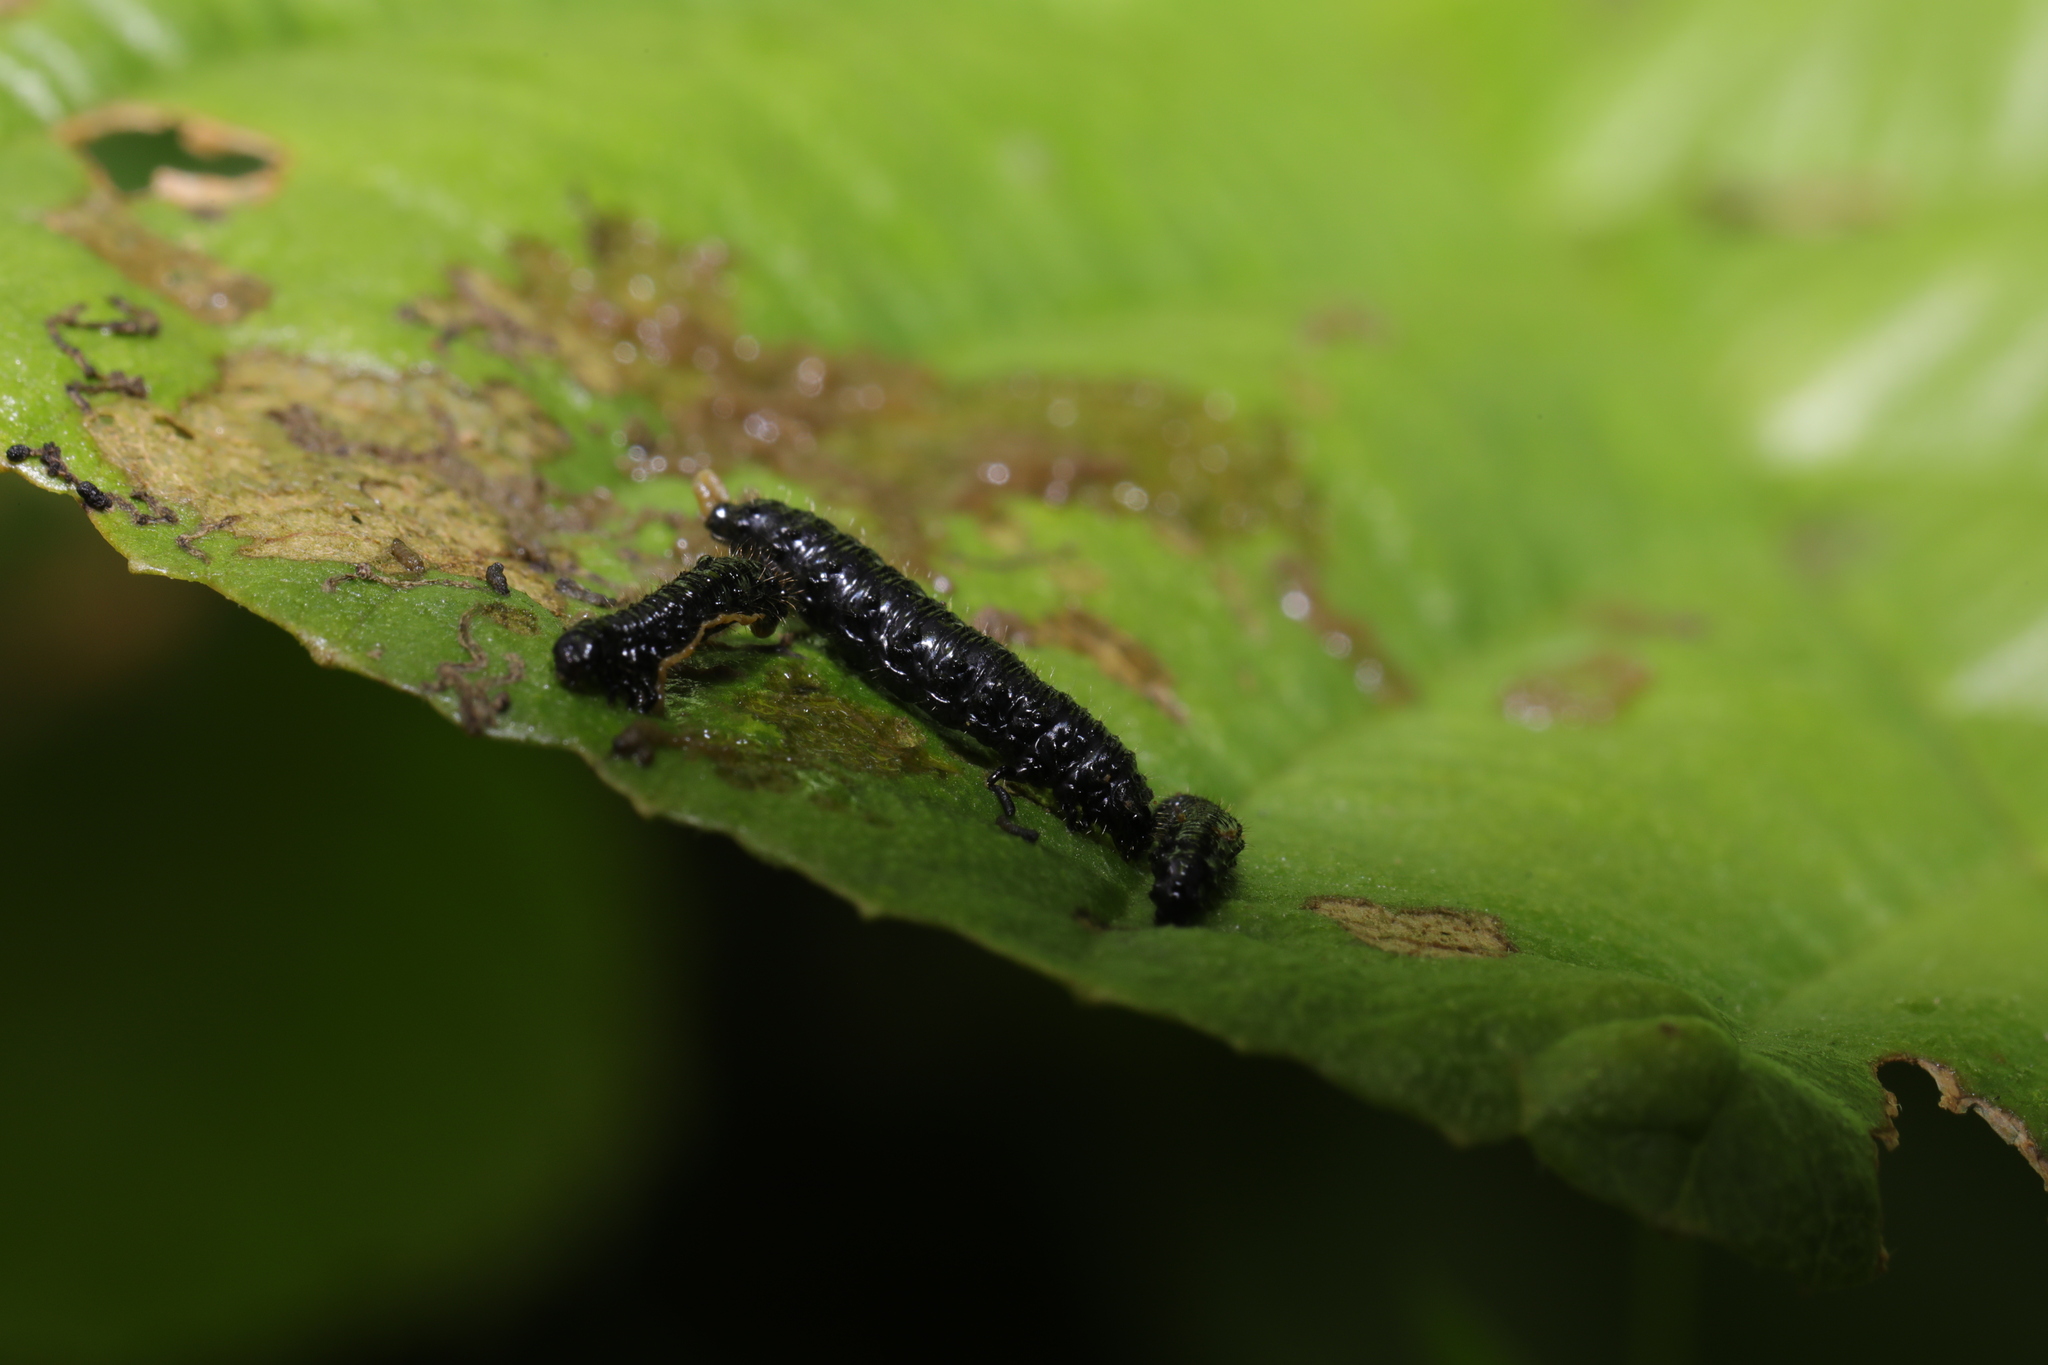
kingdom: Animalia
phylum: Arthropoda
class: Insecta
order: Coleoptera
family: Chrysomelidae
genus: Agelastica
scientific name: Agelastica alni
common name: Alder leaf beetle
